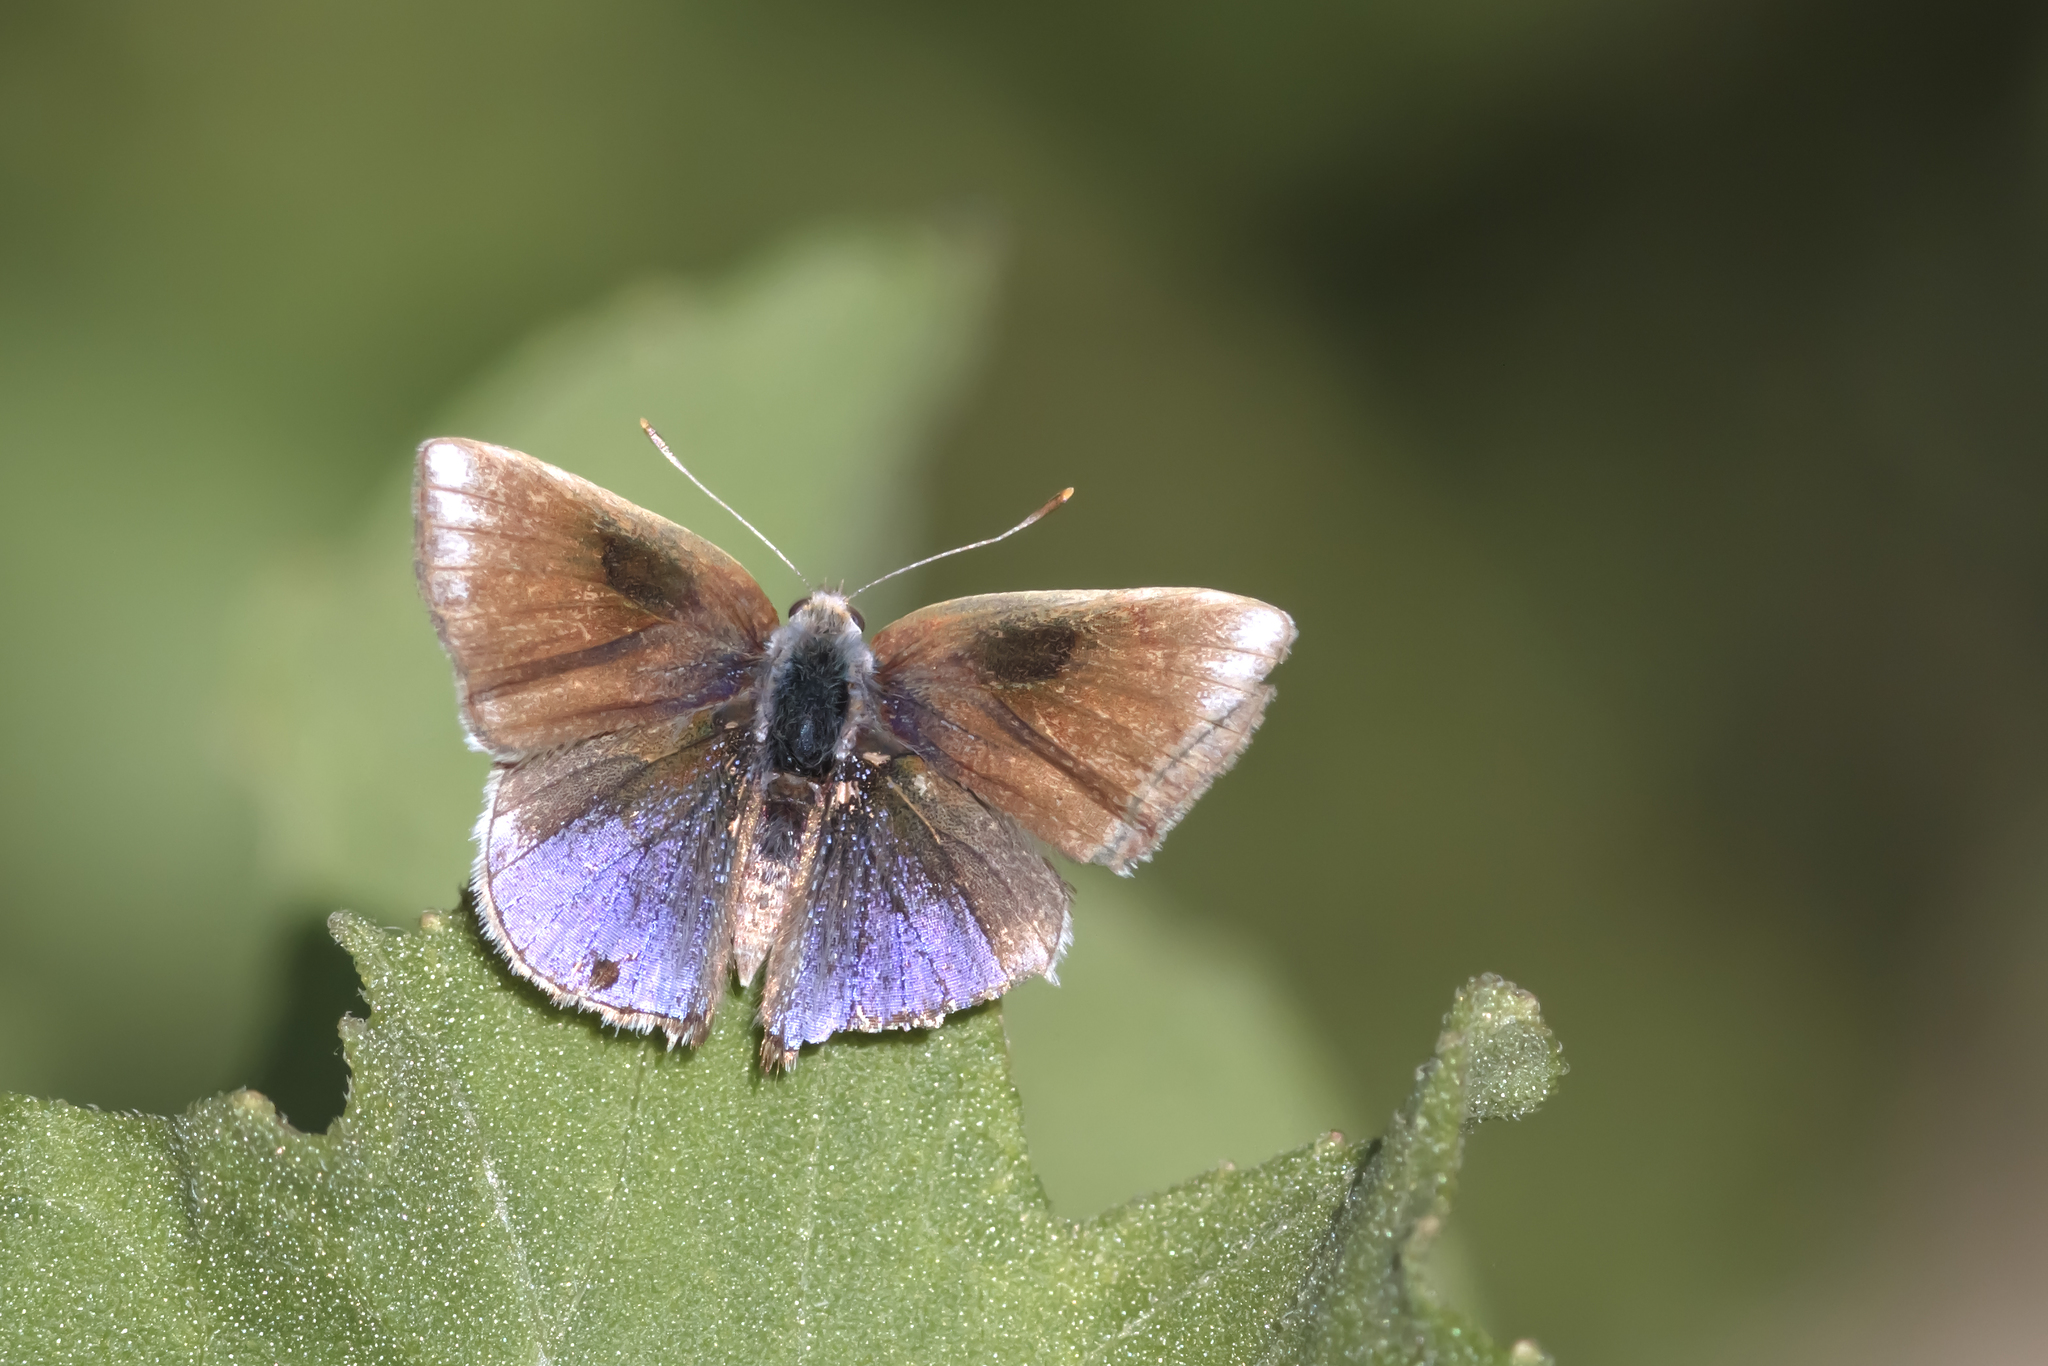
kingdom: Animalia
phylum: Arthropoda
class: Insecta
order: Lepidoptera
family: Lycaenidae
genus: Strymon
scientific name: Strymon bazochii
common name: Lantana scrub-hairstreak
